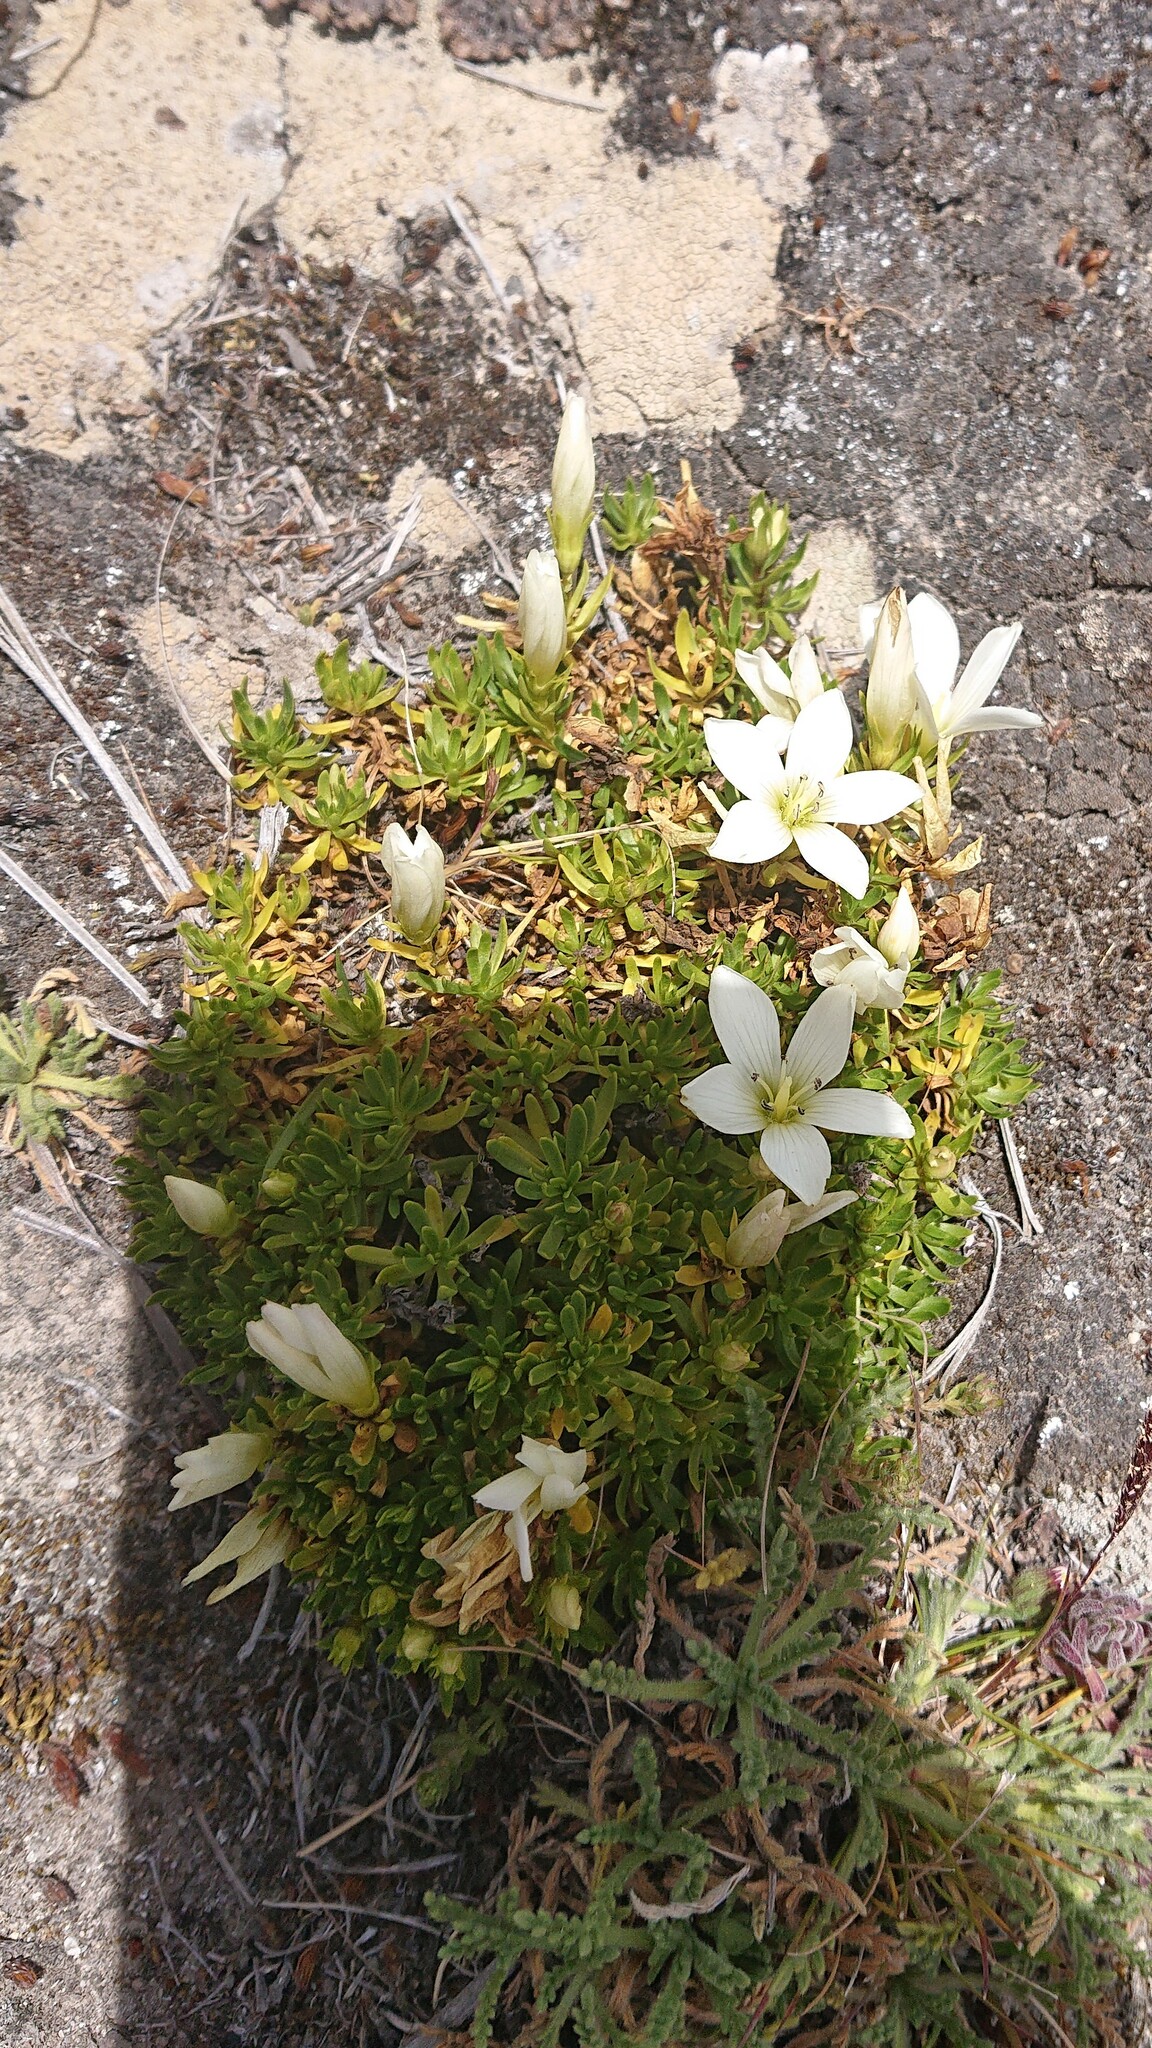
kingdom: Plantae
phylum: Tracheophyta
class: Magnoliopsida
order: Gentianales
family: Gentianaceae
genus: Gentianella
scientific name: Gentianella cerastioides
